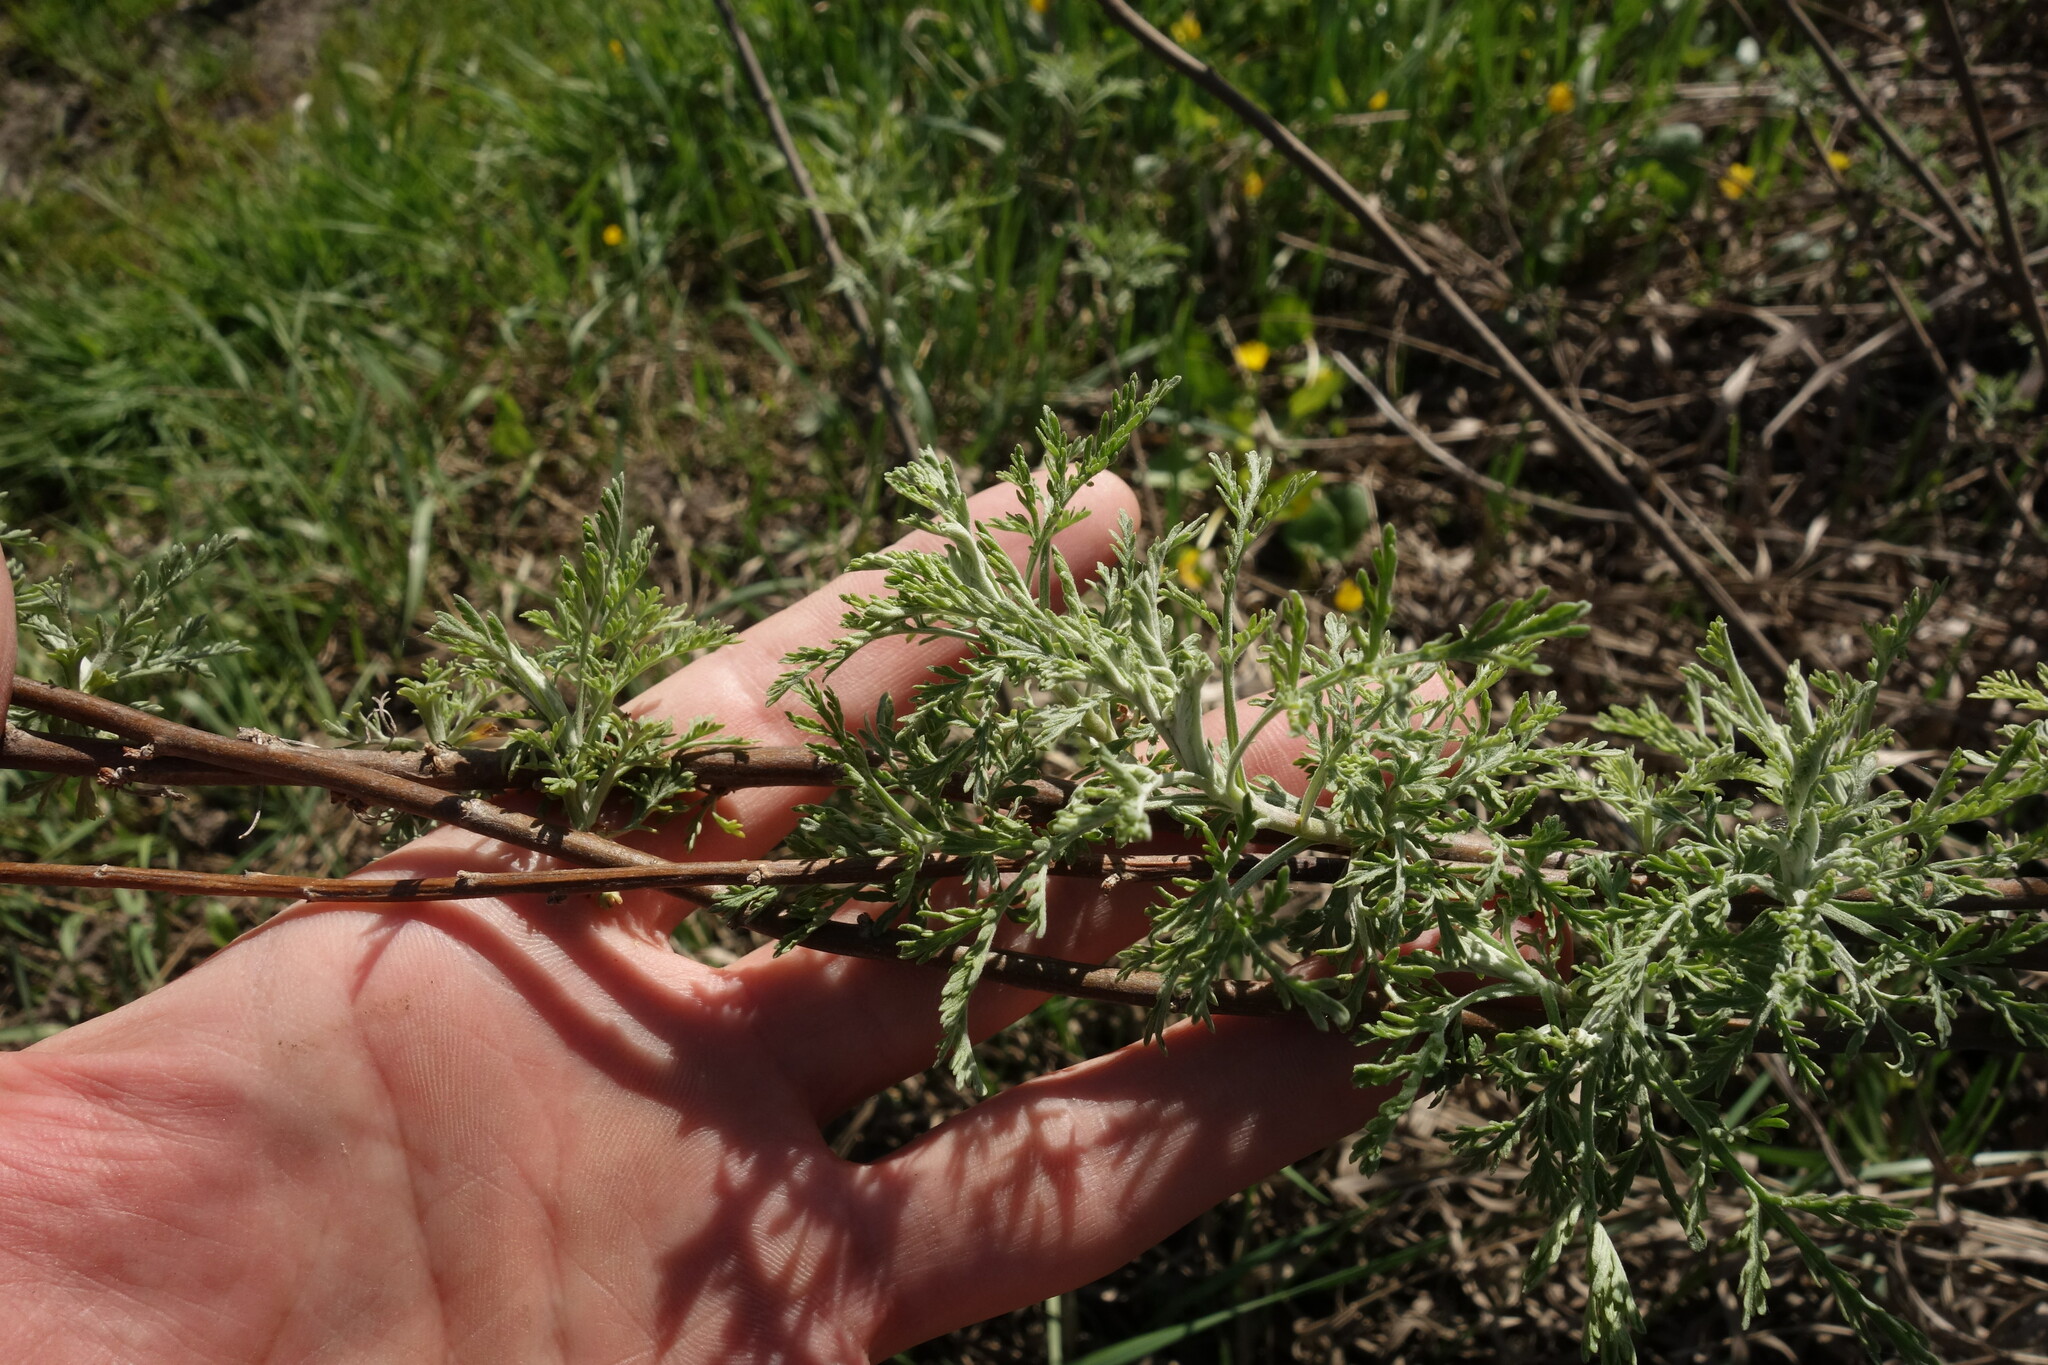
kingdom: Plantae
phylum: Tracheophyta
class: Magnoliopsida
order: Asterales
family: Asteraceae
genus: Artemisia
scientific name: Artemisia abrotanum
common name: Southernwood
